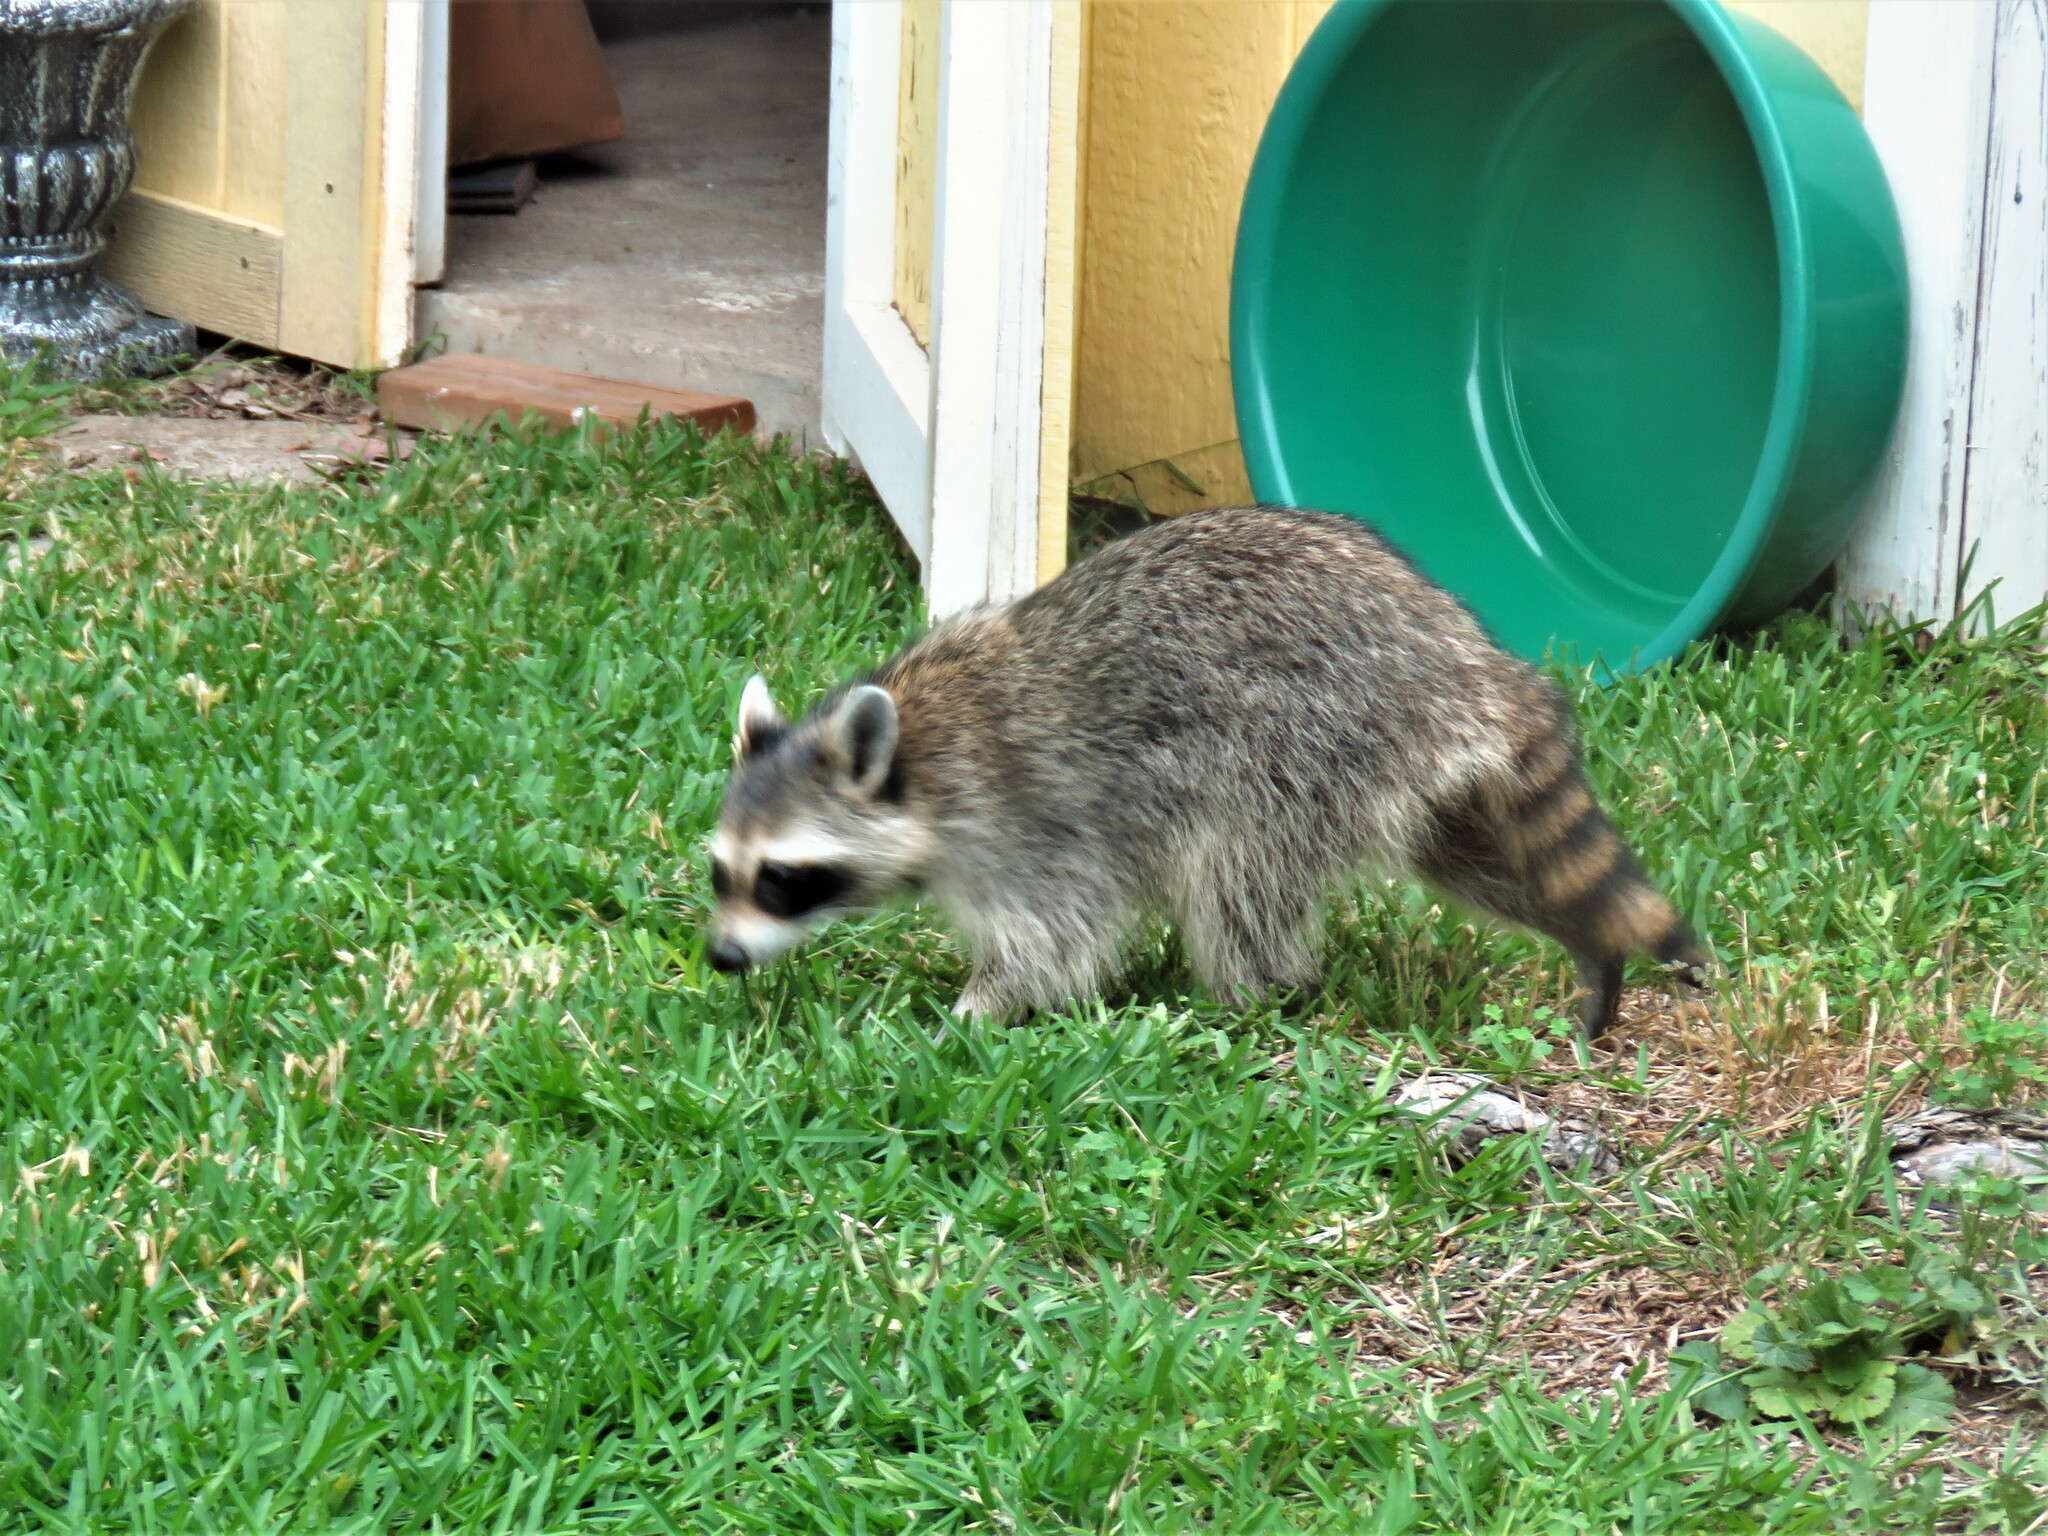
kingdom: Animalia
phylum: Chordata
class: Mammalia
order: Carnivora
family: Procyonidae
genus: Procyon
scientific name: Procyon lotor
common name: Raccoon
